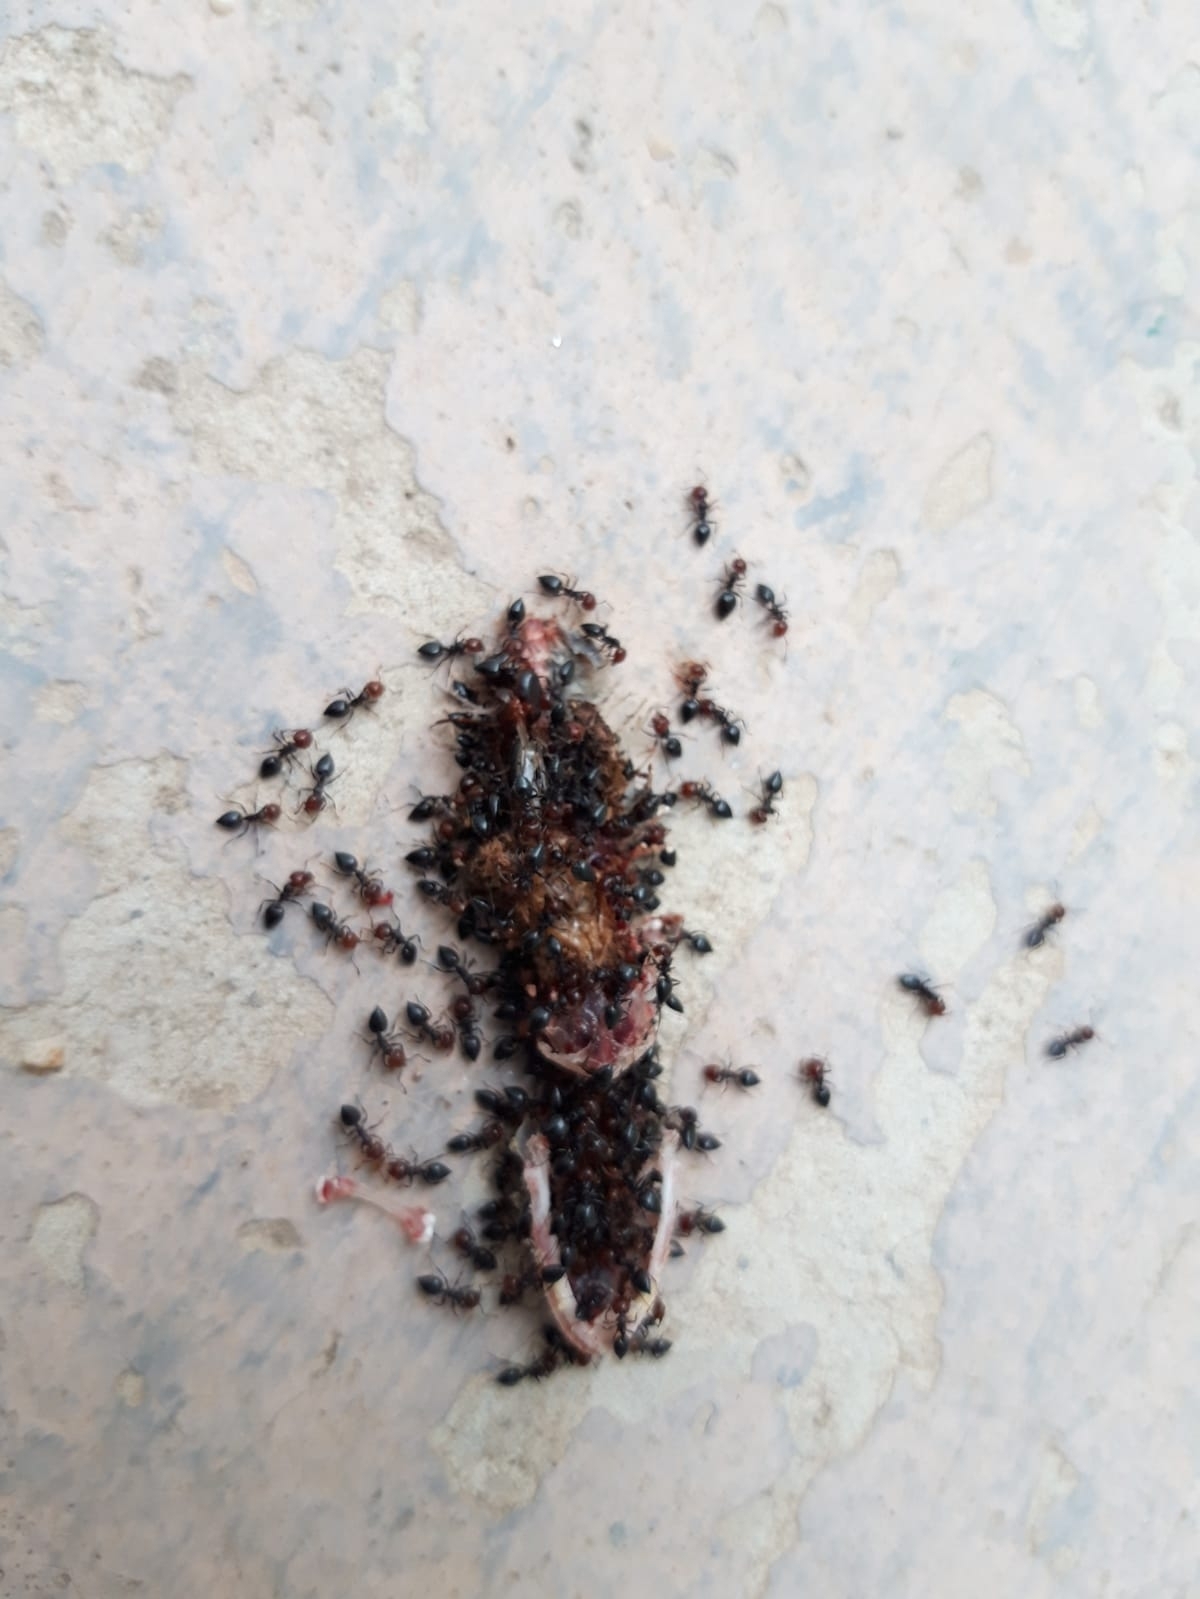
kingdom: Animalia
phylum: Arthropoda
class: Insecta
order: Hymenoptera
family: Formicidae
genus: Crematogaster
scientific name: Crematogaster scutellaris
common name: Fourmi du liège
